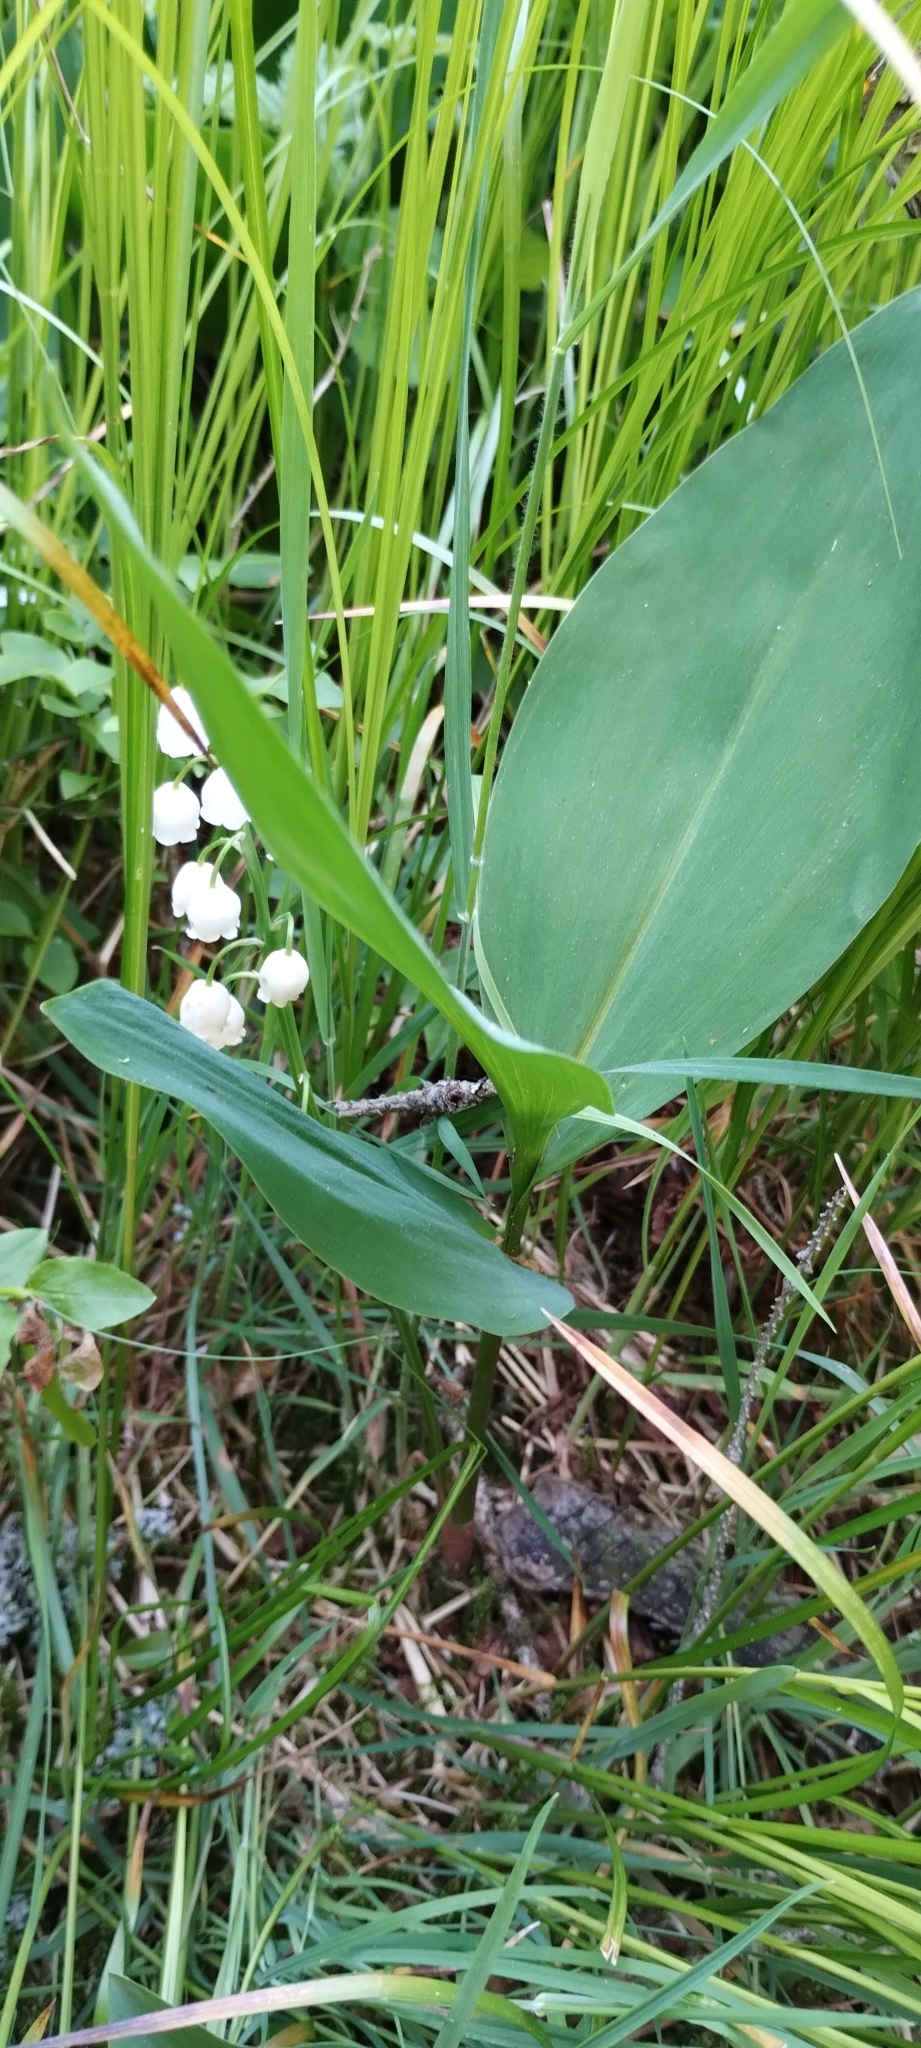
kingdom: Plantae
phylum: Tracheophyta
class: Liliopsida
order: Asparagales
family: Asparagaceae
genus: Convallaria
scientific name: Convallaria majalis
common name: Lily-of-the-valley
